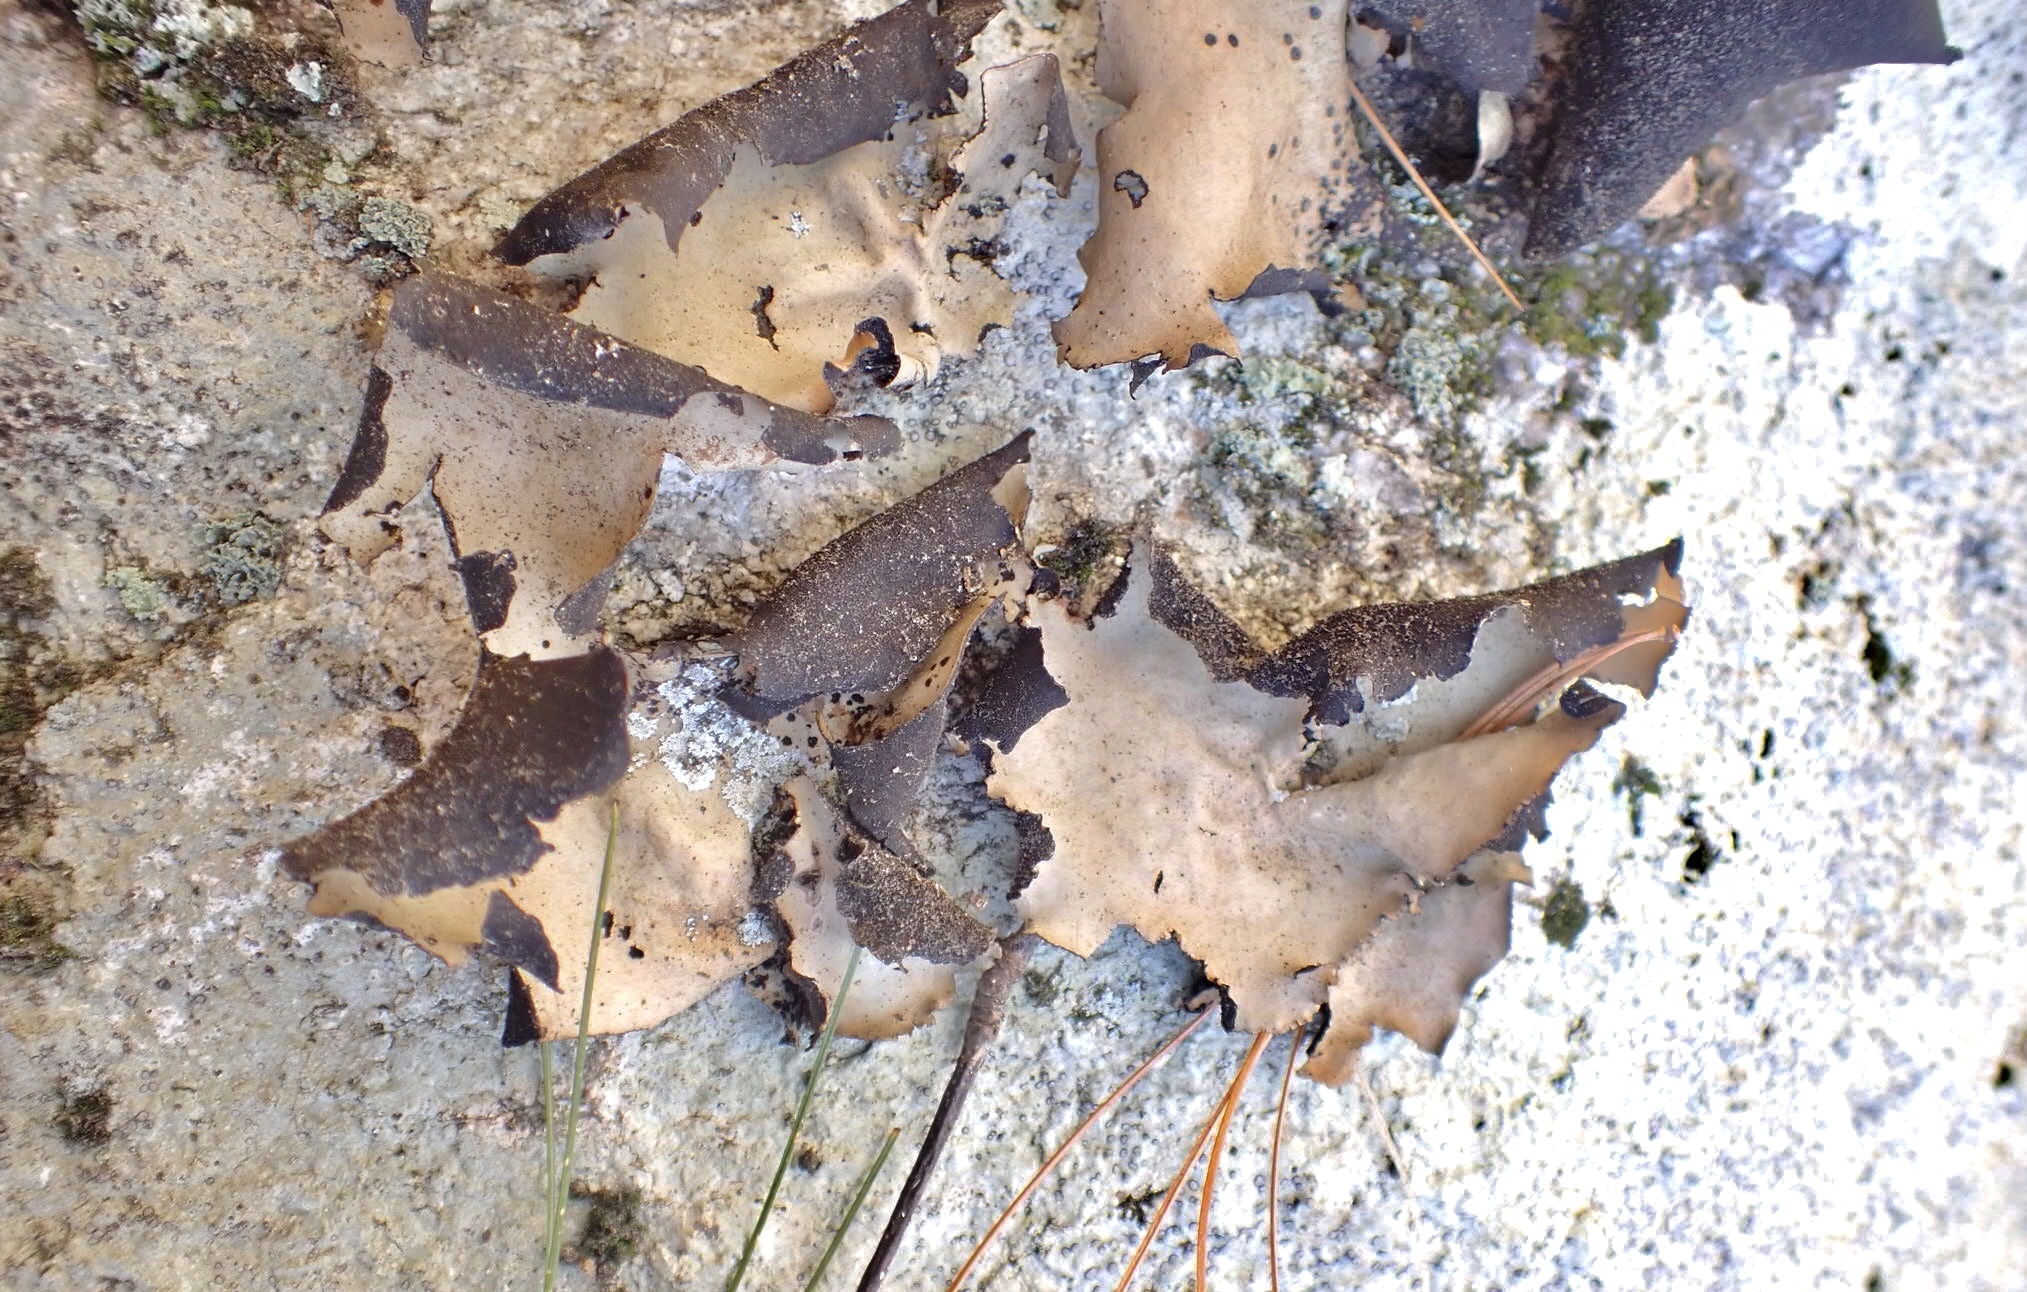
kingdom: Fungi
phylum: Ascomycota
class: Lecanoromycetes
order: Umbilicariales
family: Umbilicariaceae
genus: Umbilicaria
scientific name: Umbilicaria mammulata
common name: Smooth rock tripe
